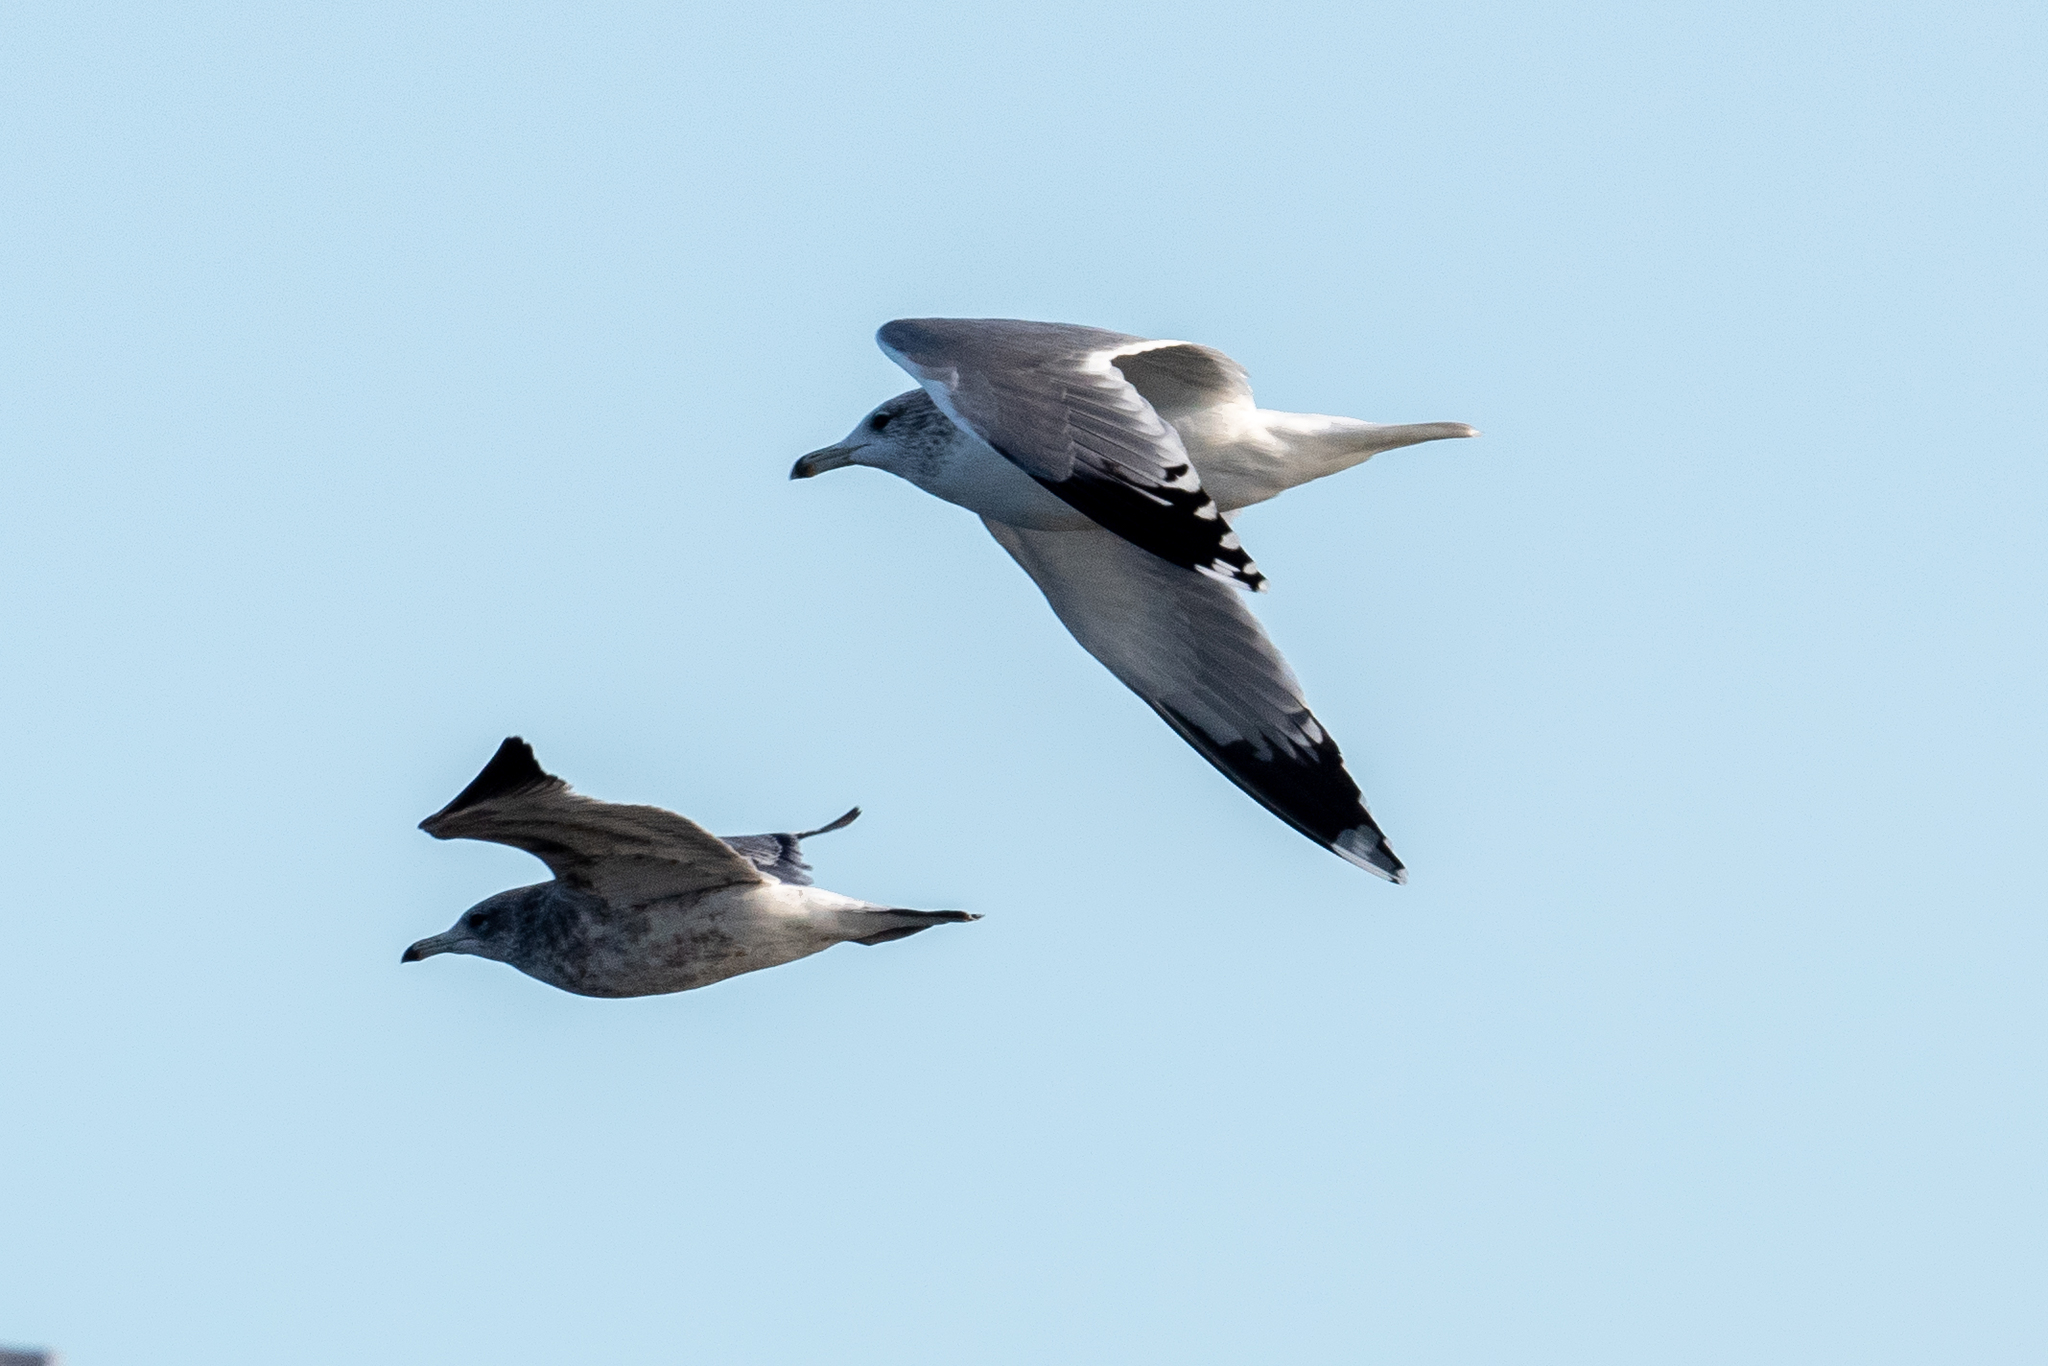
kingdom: Animalia
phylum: Chordata
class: Aves
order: Charadriiformes
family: Laridae
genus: Larus
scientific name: Larus californicus
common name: California gull
